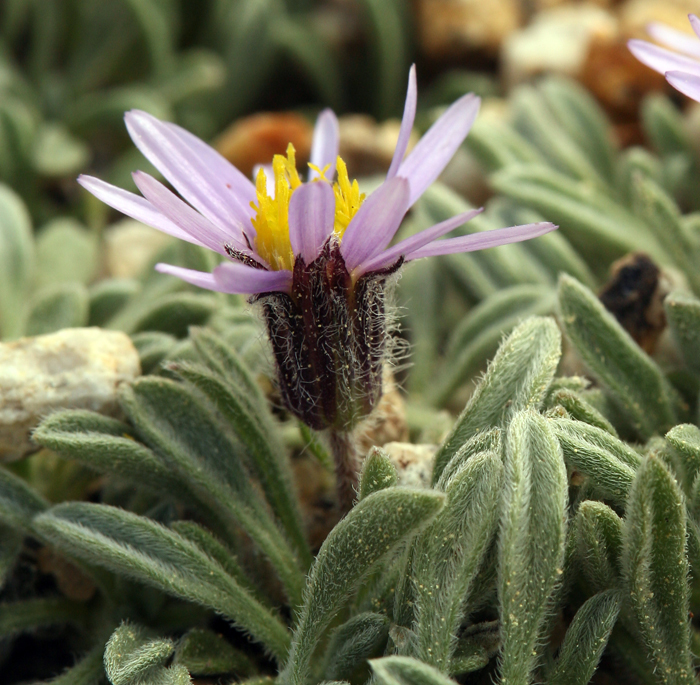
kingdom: Plantae
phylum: Tracheophyta
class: Magnoliopsida
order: Asterales
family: Asteraceae
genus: Erigeron
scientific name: Erigeron pygmaeus
